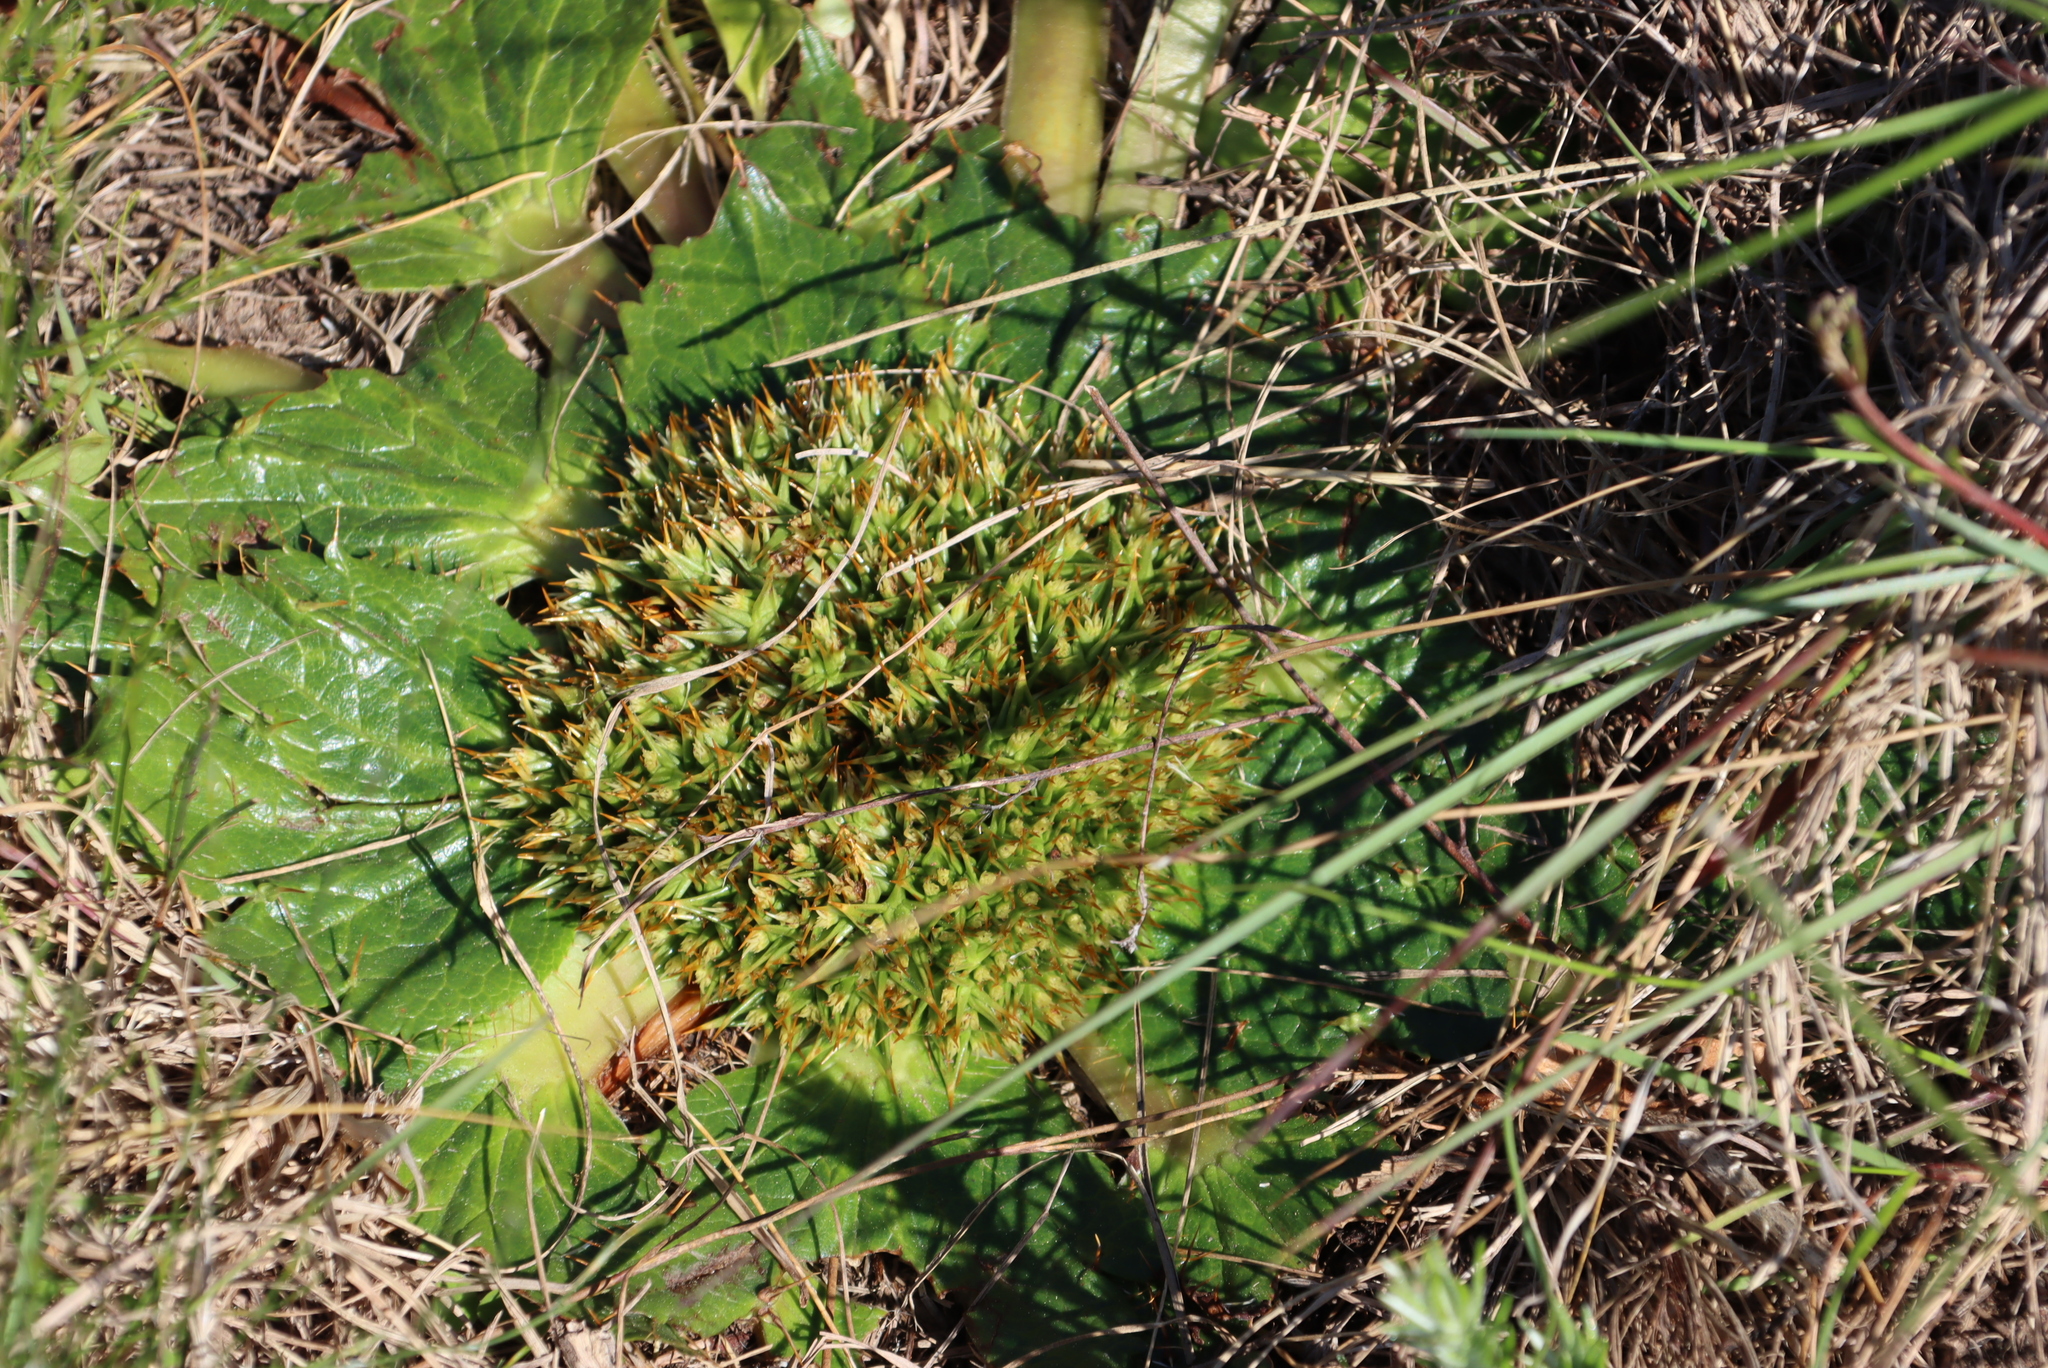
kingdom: Plantae
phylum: Tracheophyta
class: Magnoliopsida
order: Apiales
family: Apiaceae
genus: Arctopus
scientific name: Arctopus echinatus
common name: Platdoring
